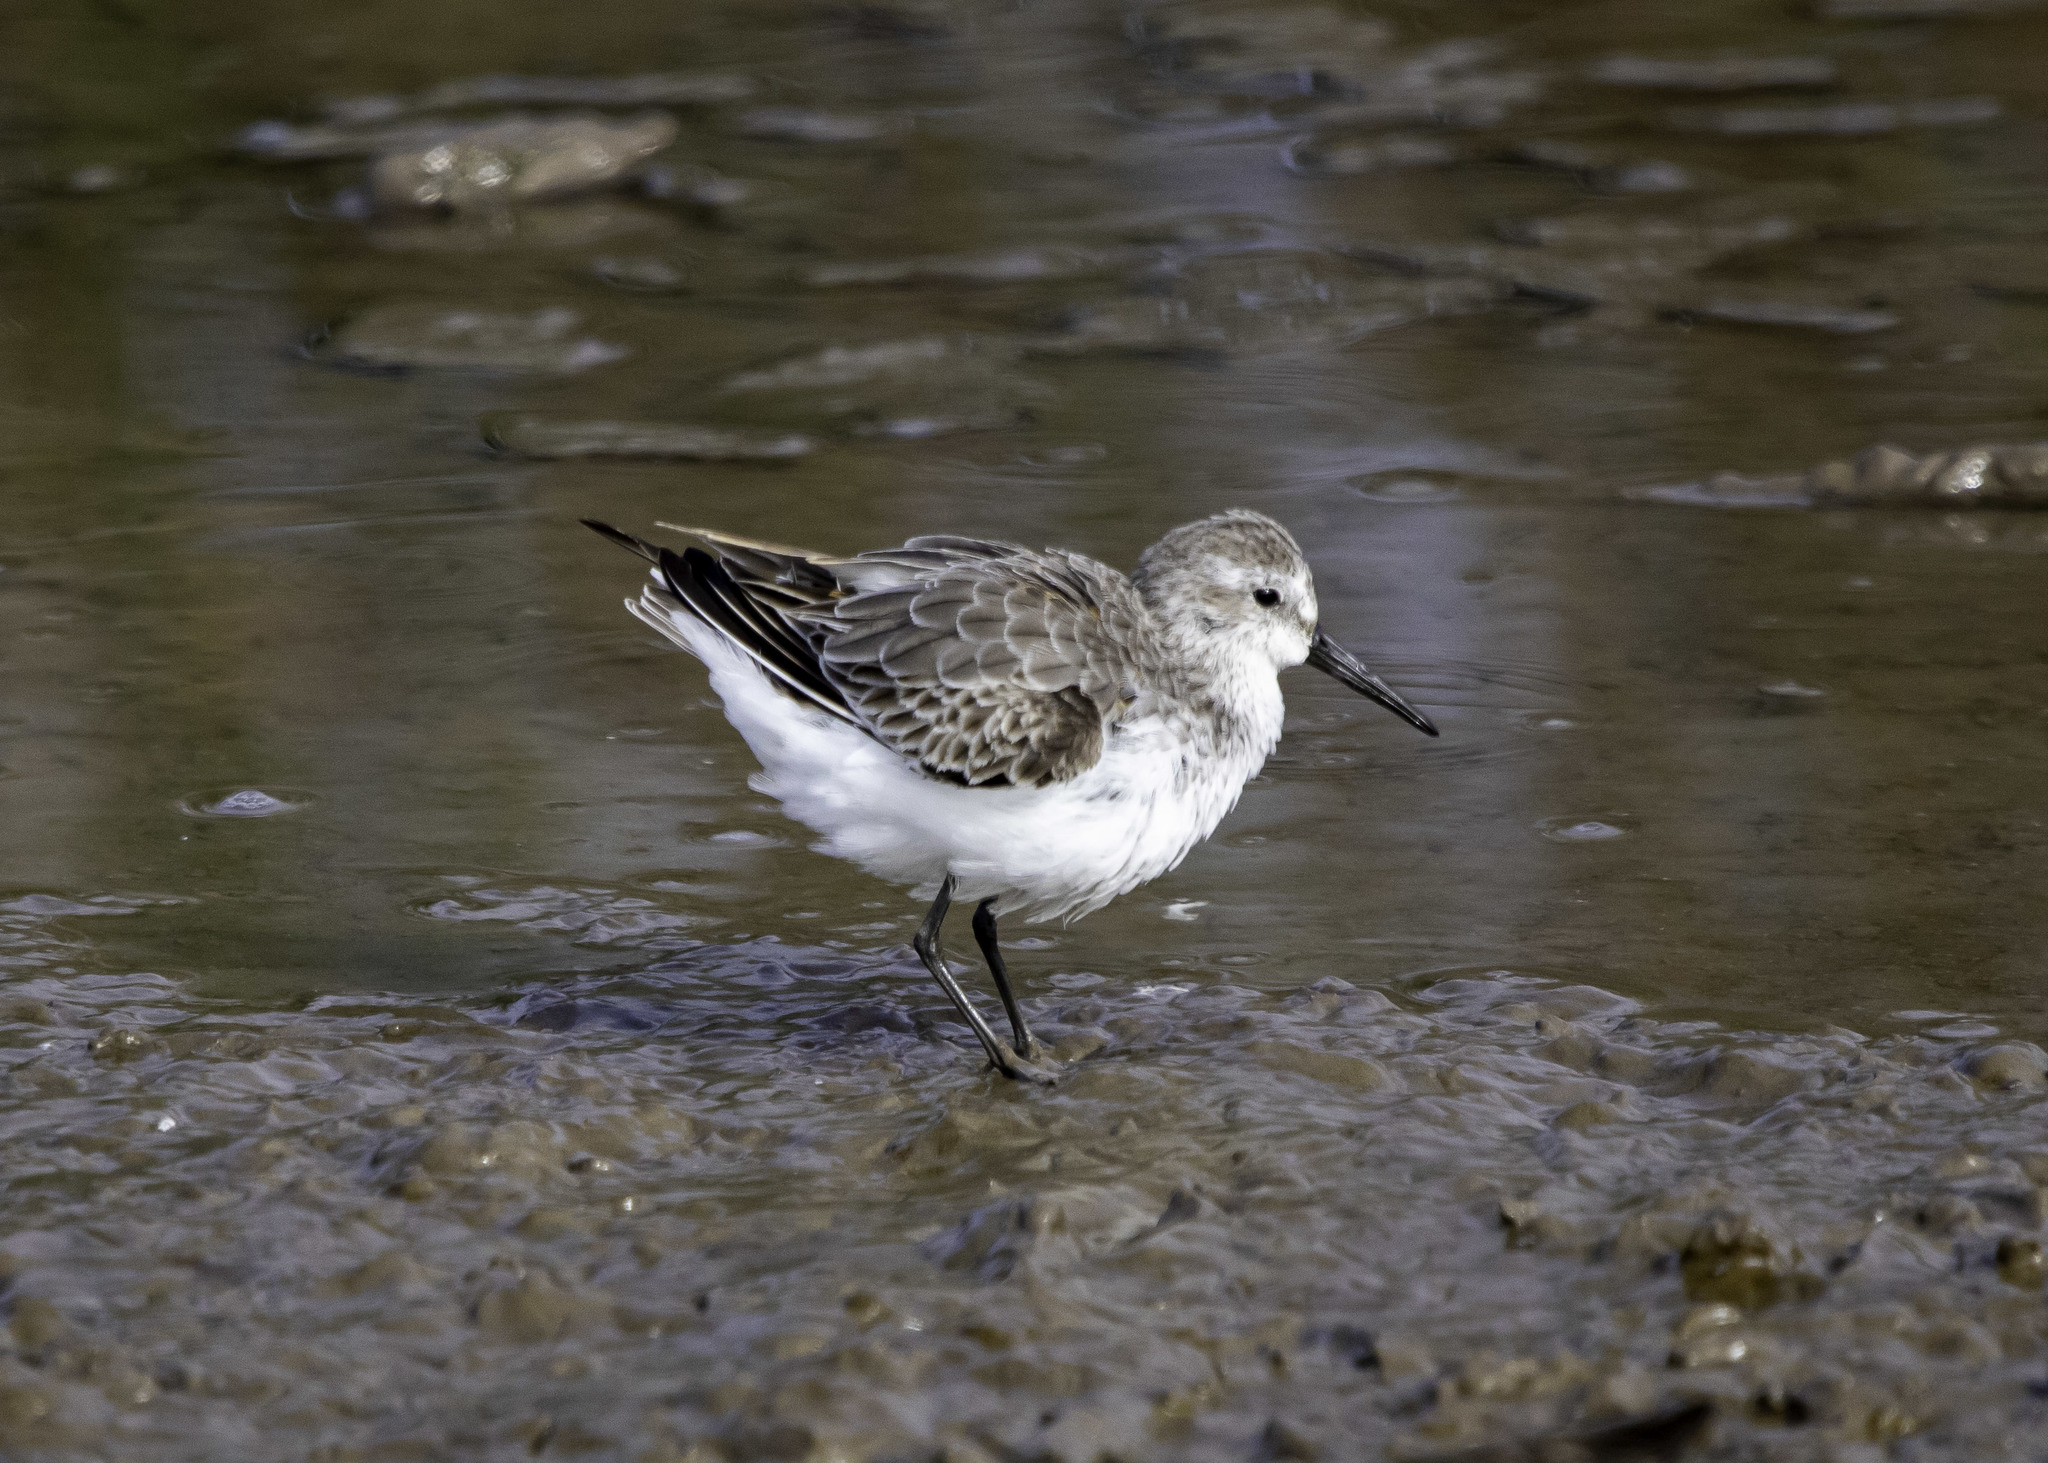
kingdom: Animalia
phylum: Chordata
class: Aves
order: Charadriiformes
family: Scolopacidae
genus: Calidris
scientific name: Calidris mauri
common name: Western sandpiper
